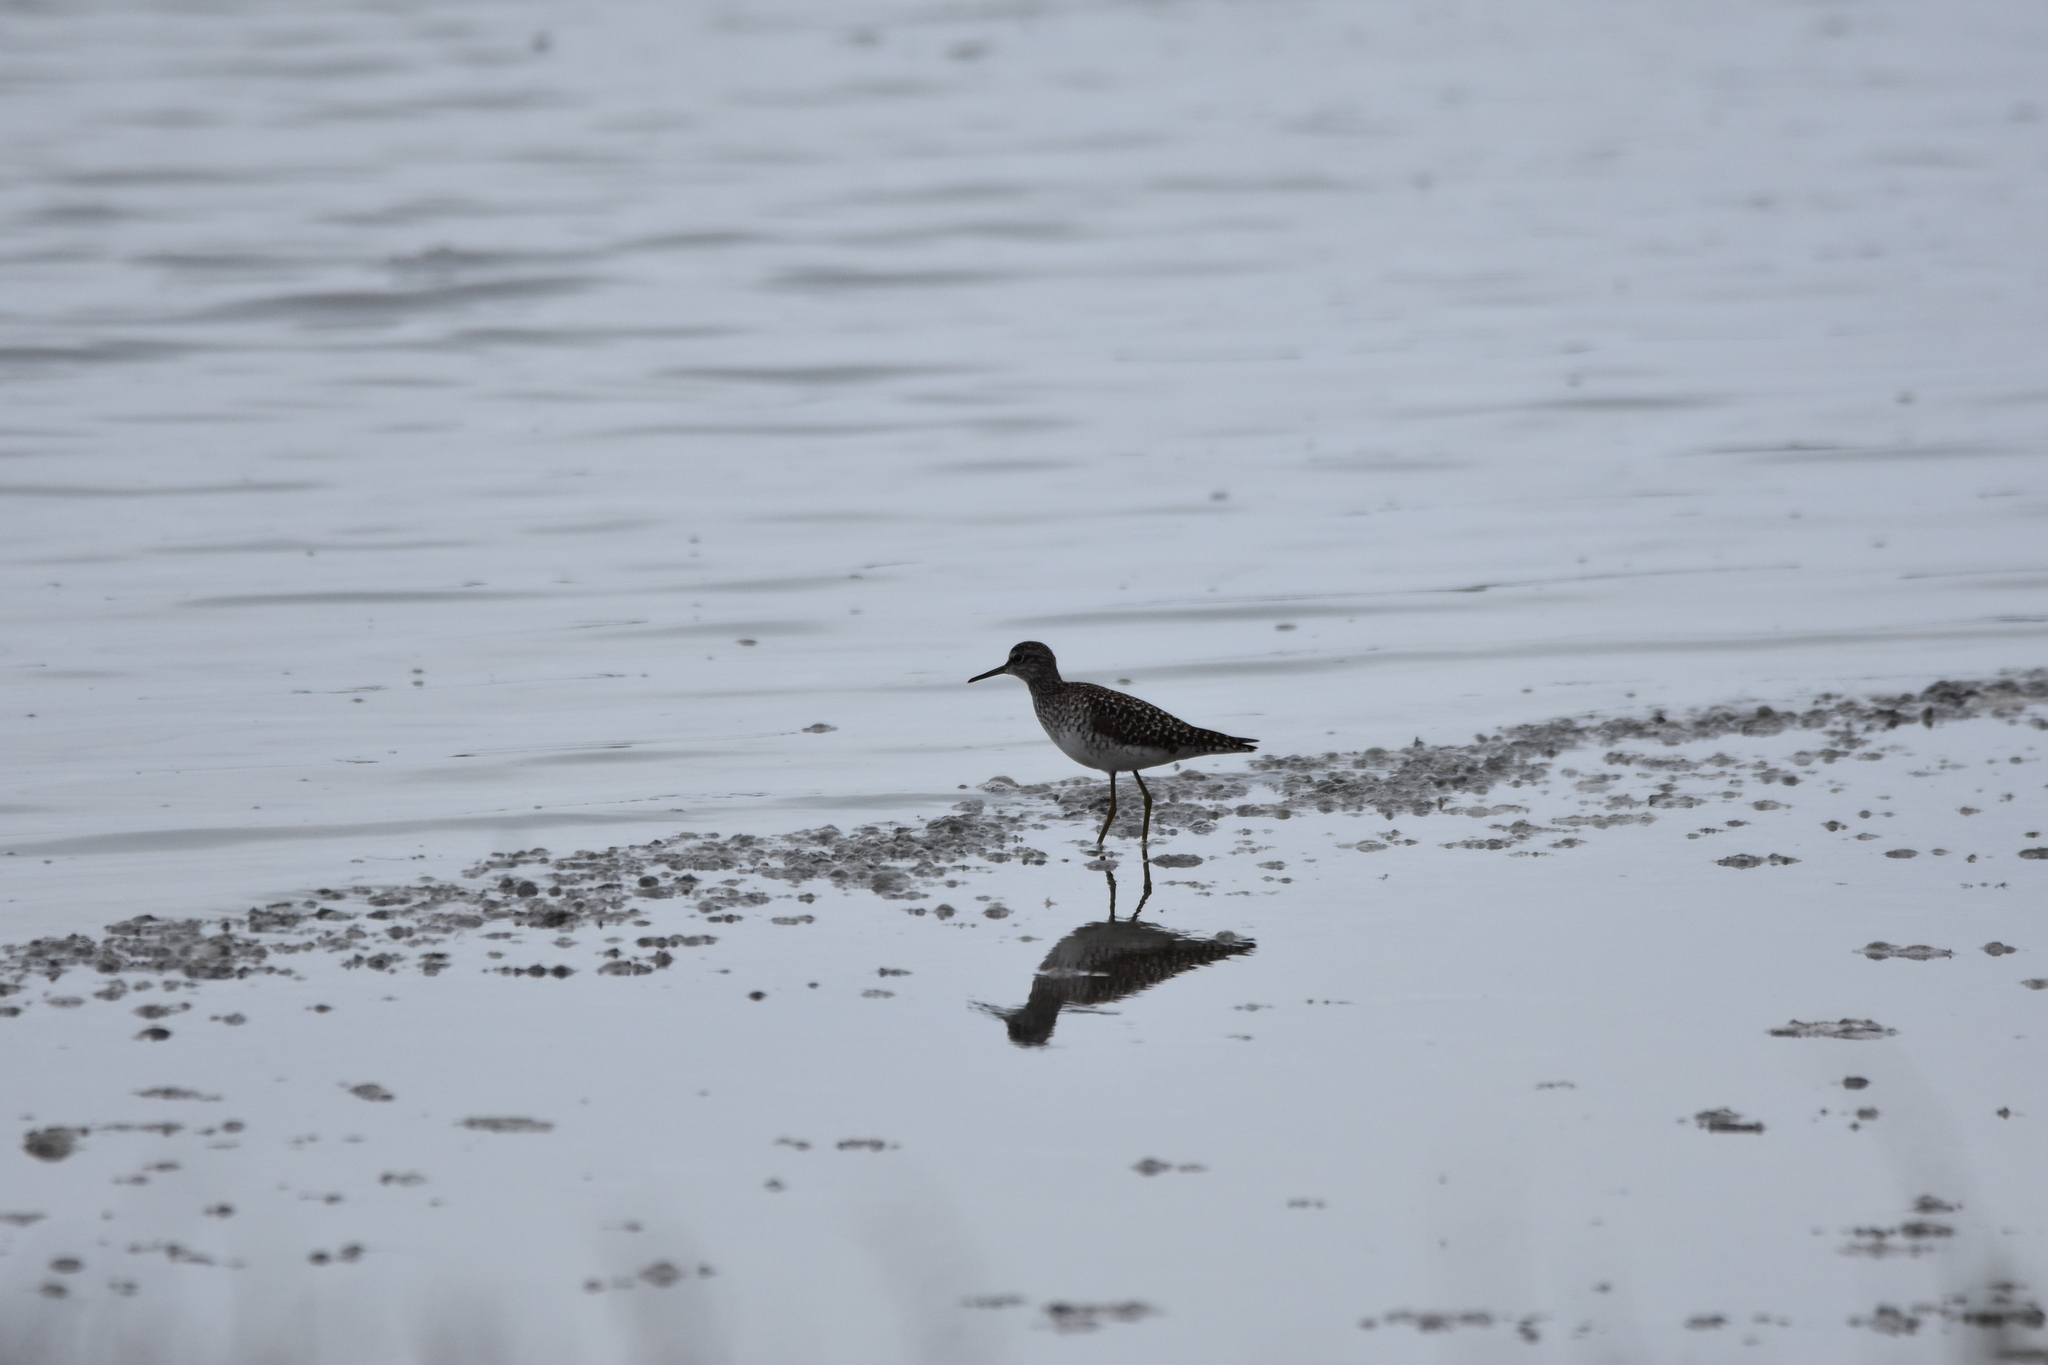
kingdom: Animalia
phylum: Chordata
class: Aves
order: Charadriiformes
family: Scolopacidae
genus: Tringa
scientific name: Tringa glareola
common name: Wood sandpiper
